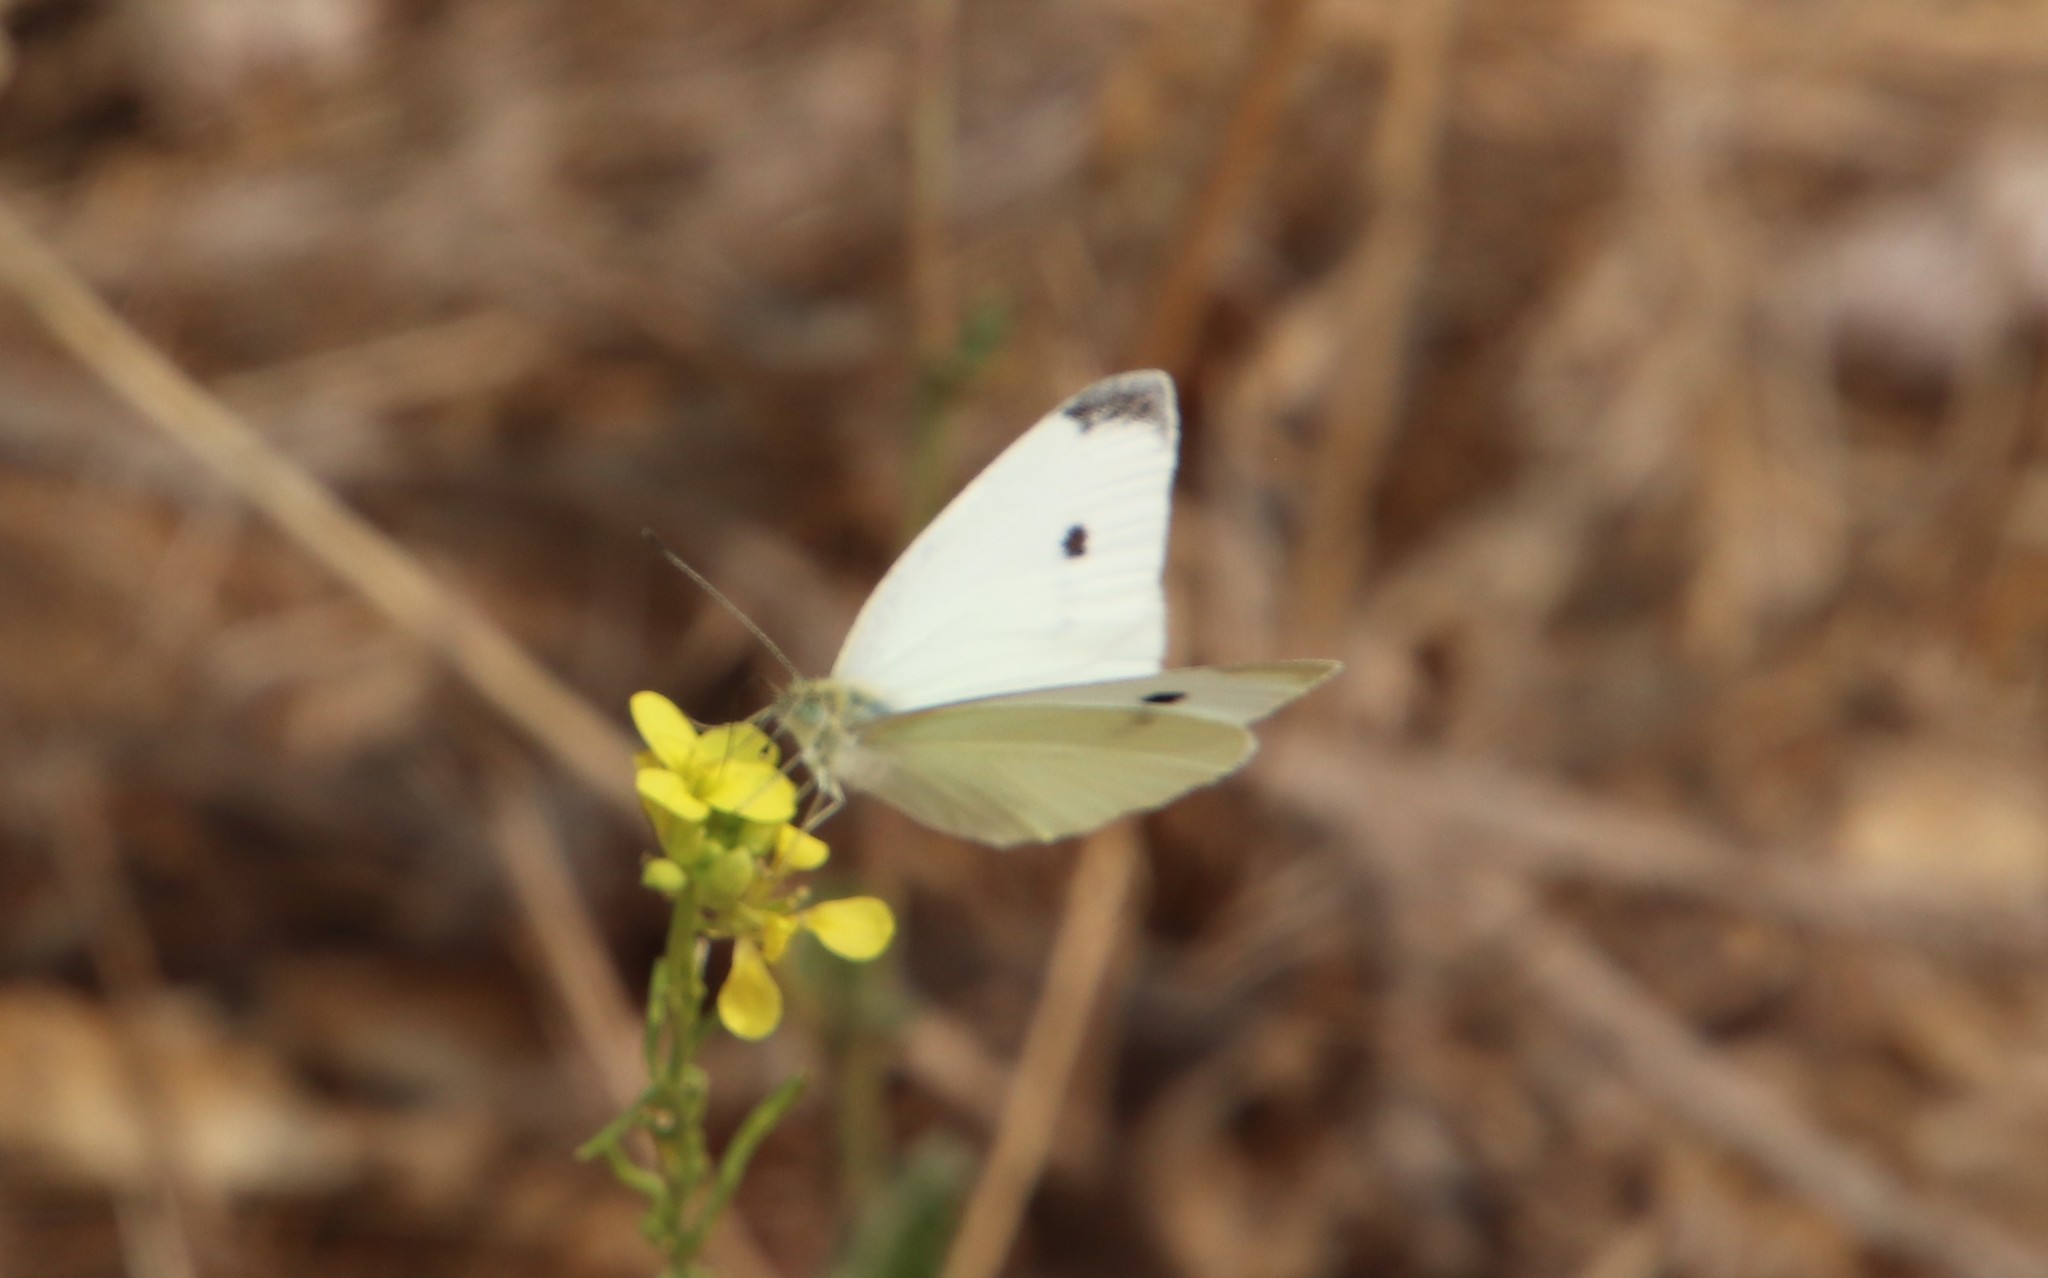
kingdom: Animalia
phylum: Arthropoda
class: Insecta
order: Lepidoptera
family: Pieridae
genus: Pieris
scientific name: Pieris rapae
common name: Small white
